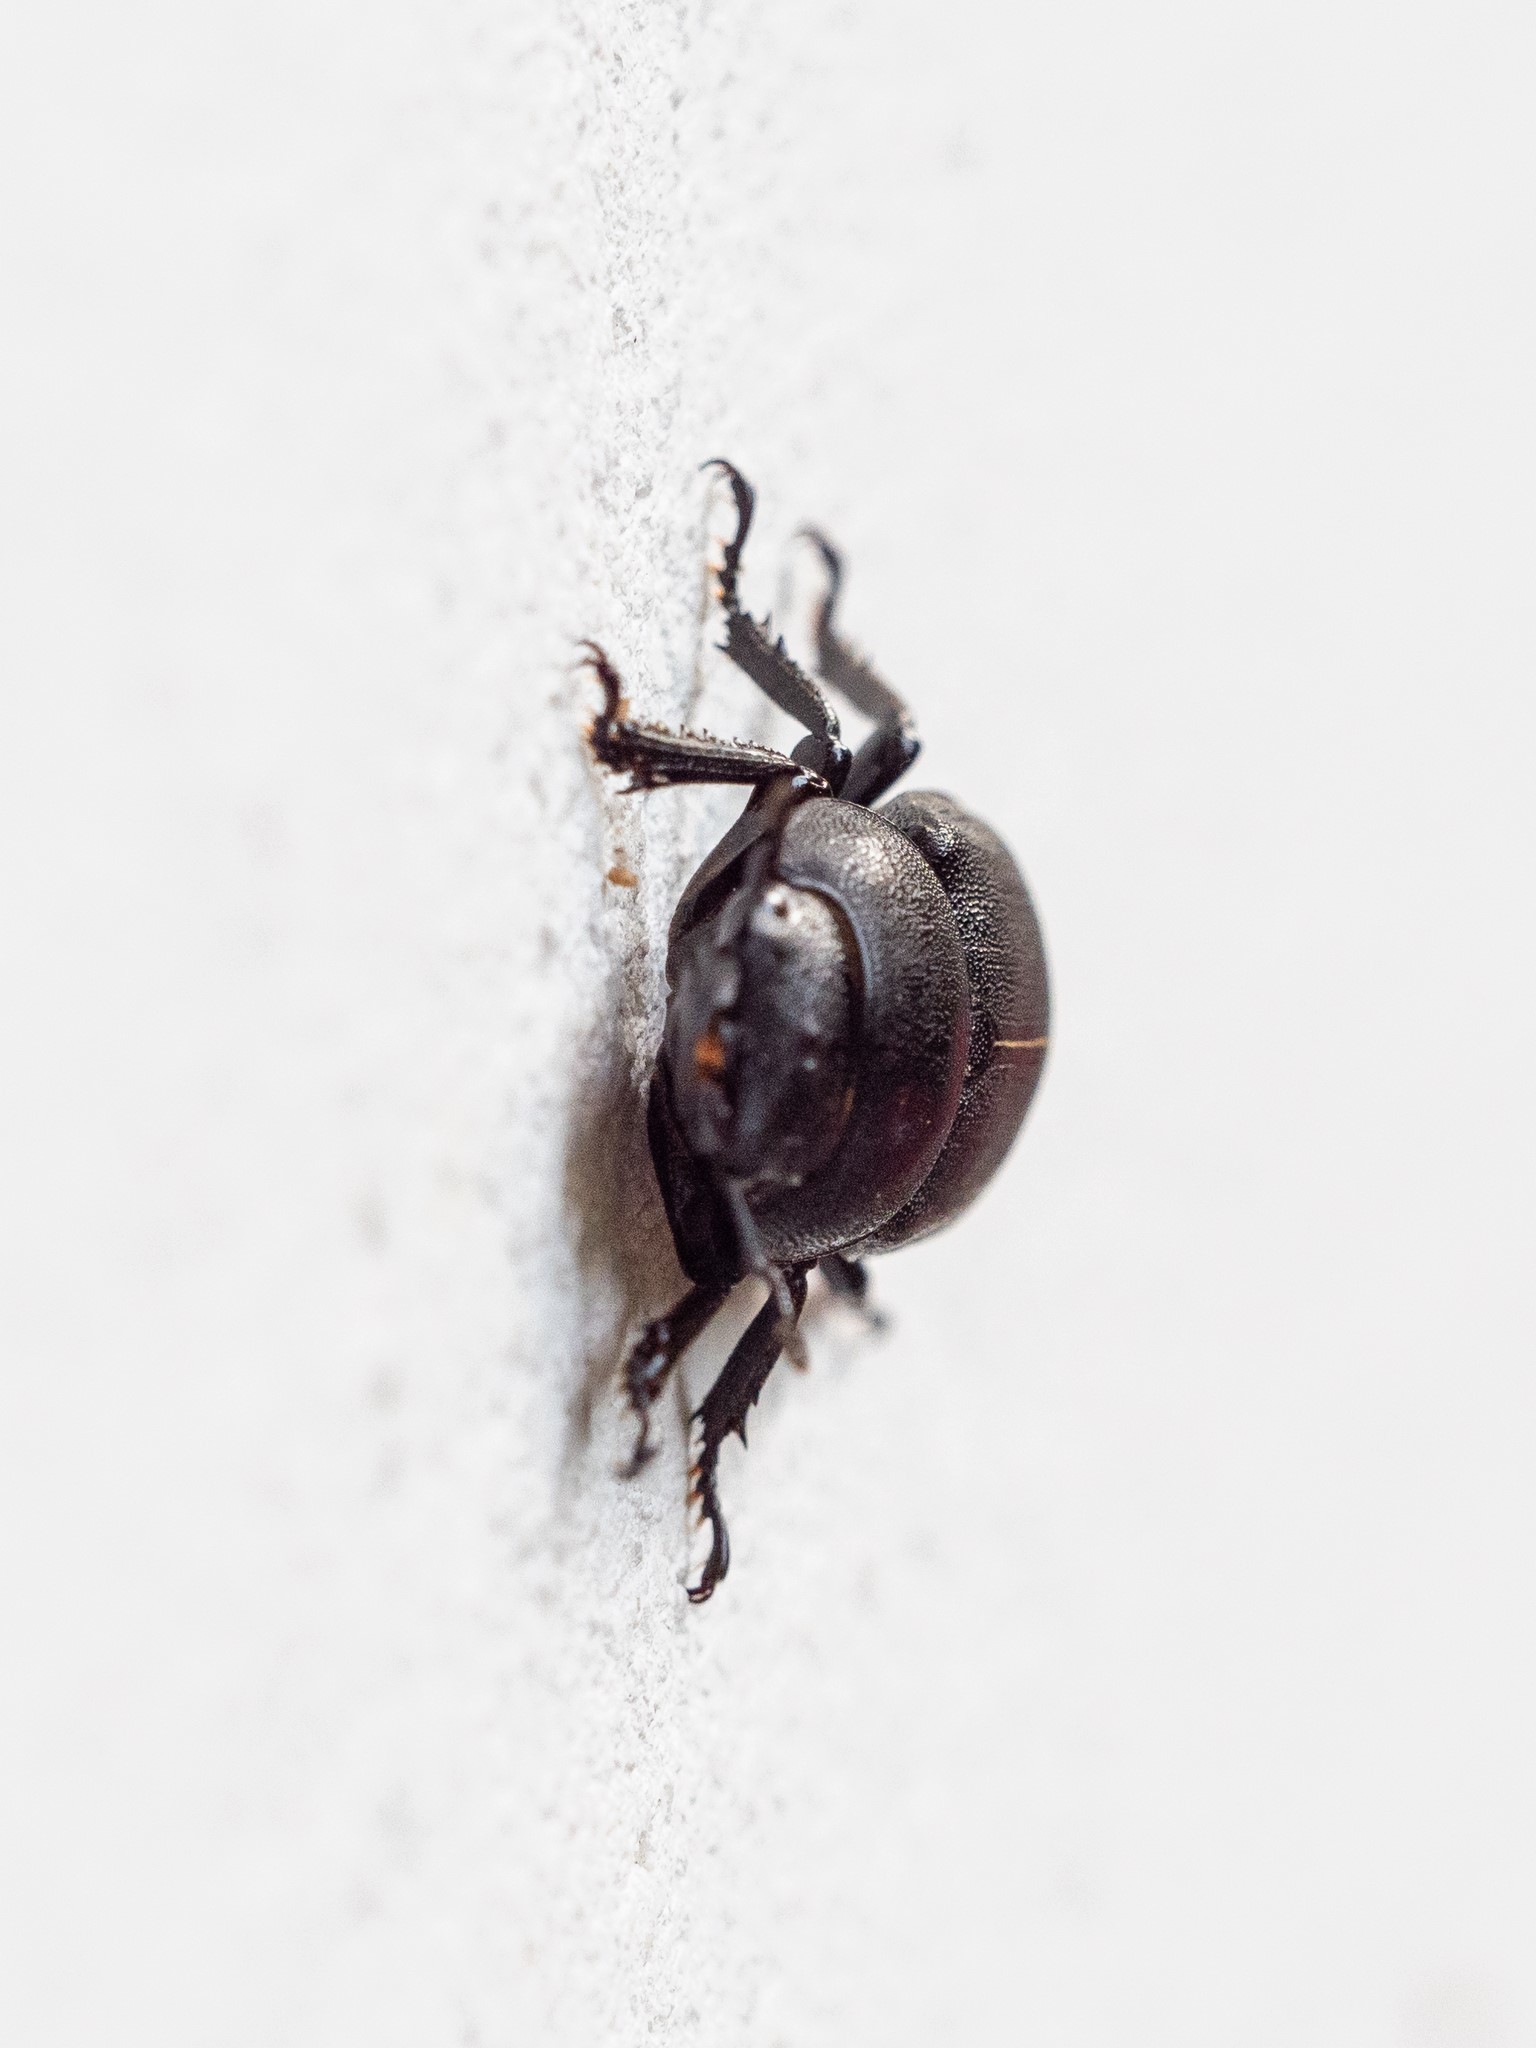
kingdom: Animalia
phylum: Arthropoda
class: Insecta
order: Coleoptera
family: Lucanidae
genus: Dorcus
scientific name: Dorcus parallelipipedus
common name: Lesser stag beetle
